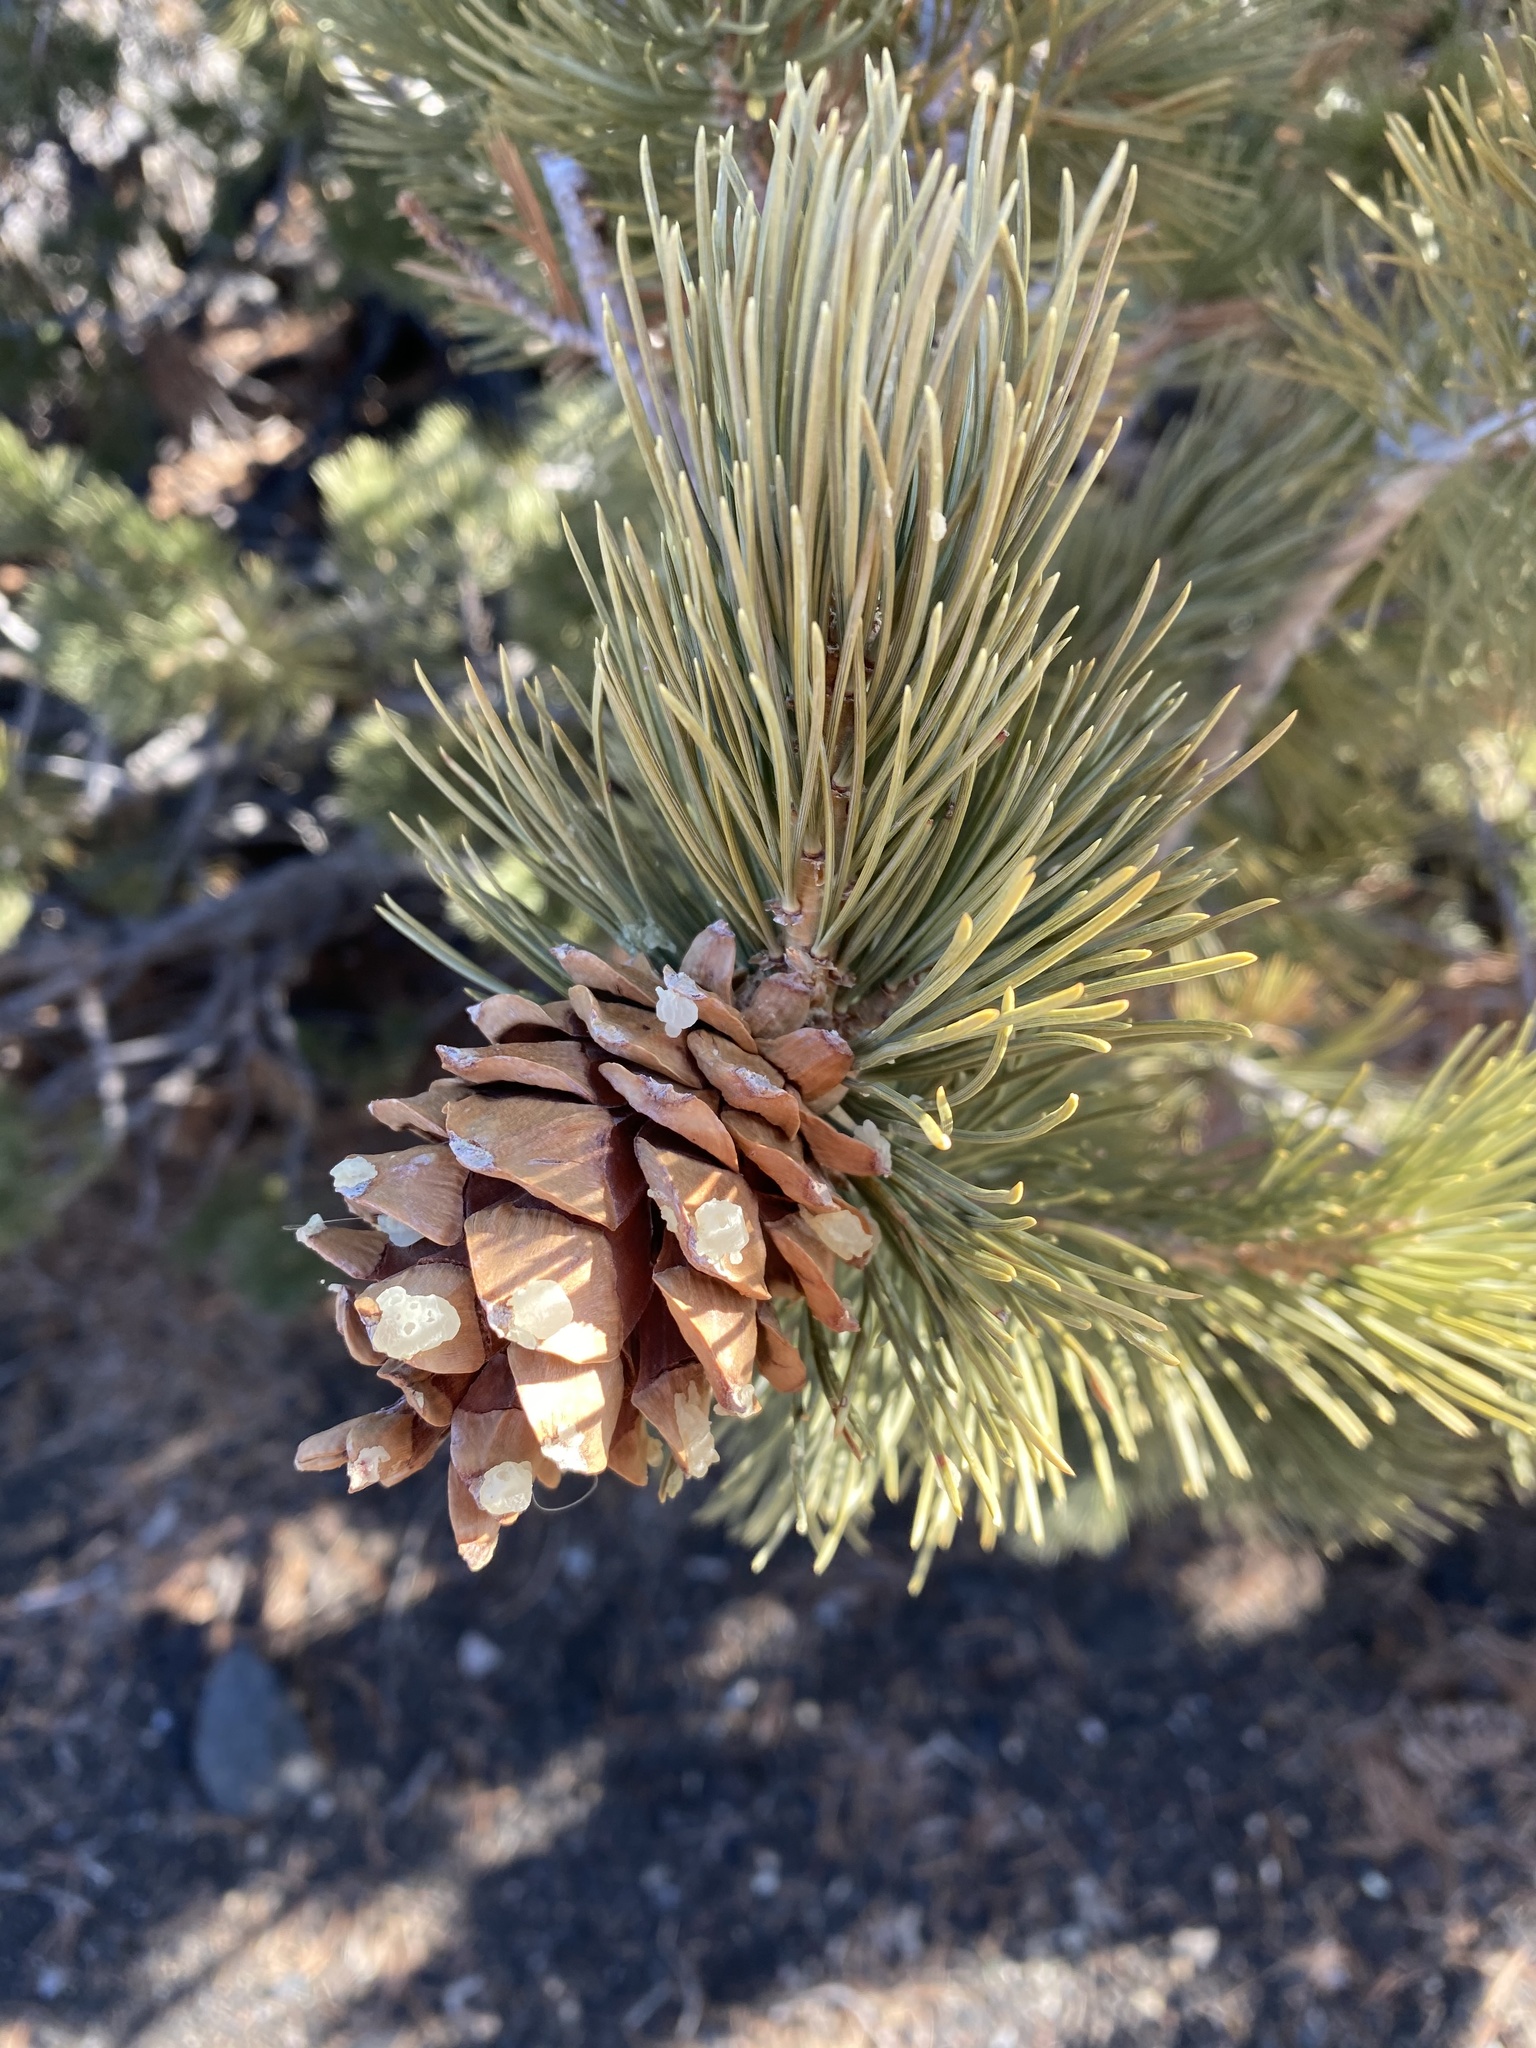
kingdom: Plantae
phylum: Tracheophyta
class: Pinopsida
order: Pinales
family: Pinaceae
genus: Pinus
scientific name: Pinus flexilis
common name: Limber pine
